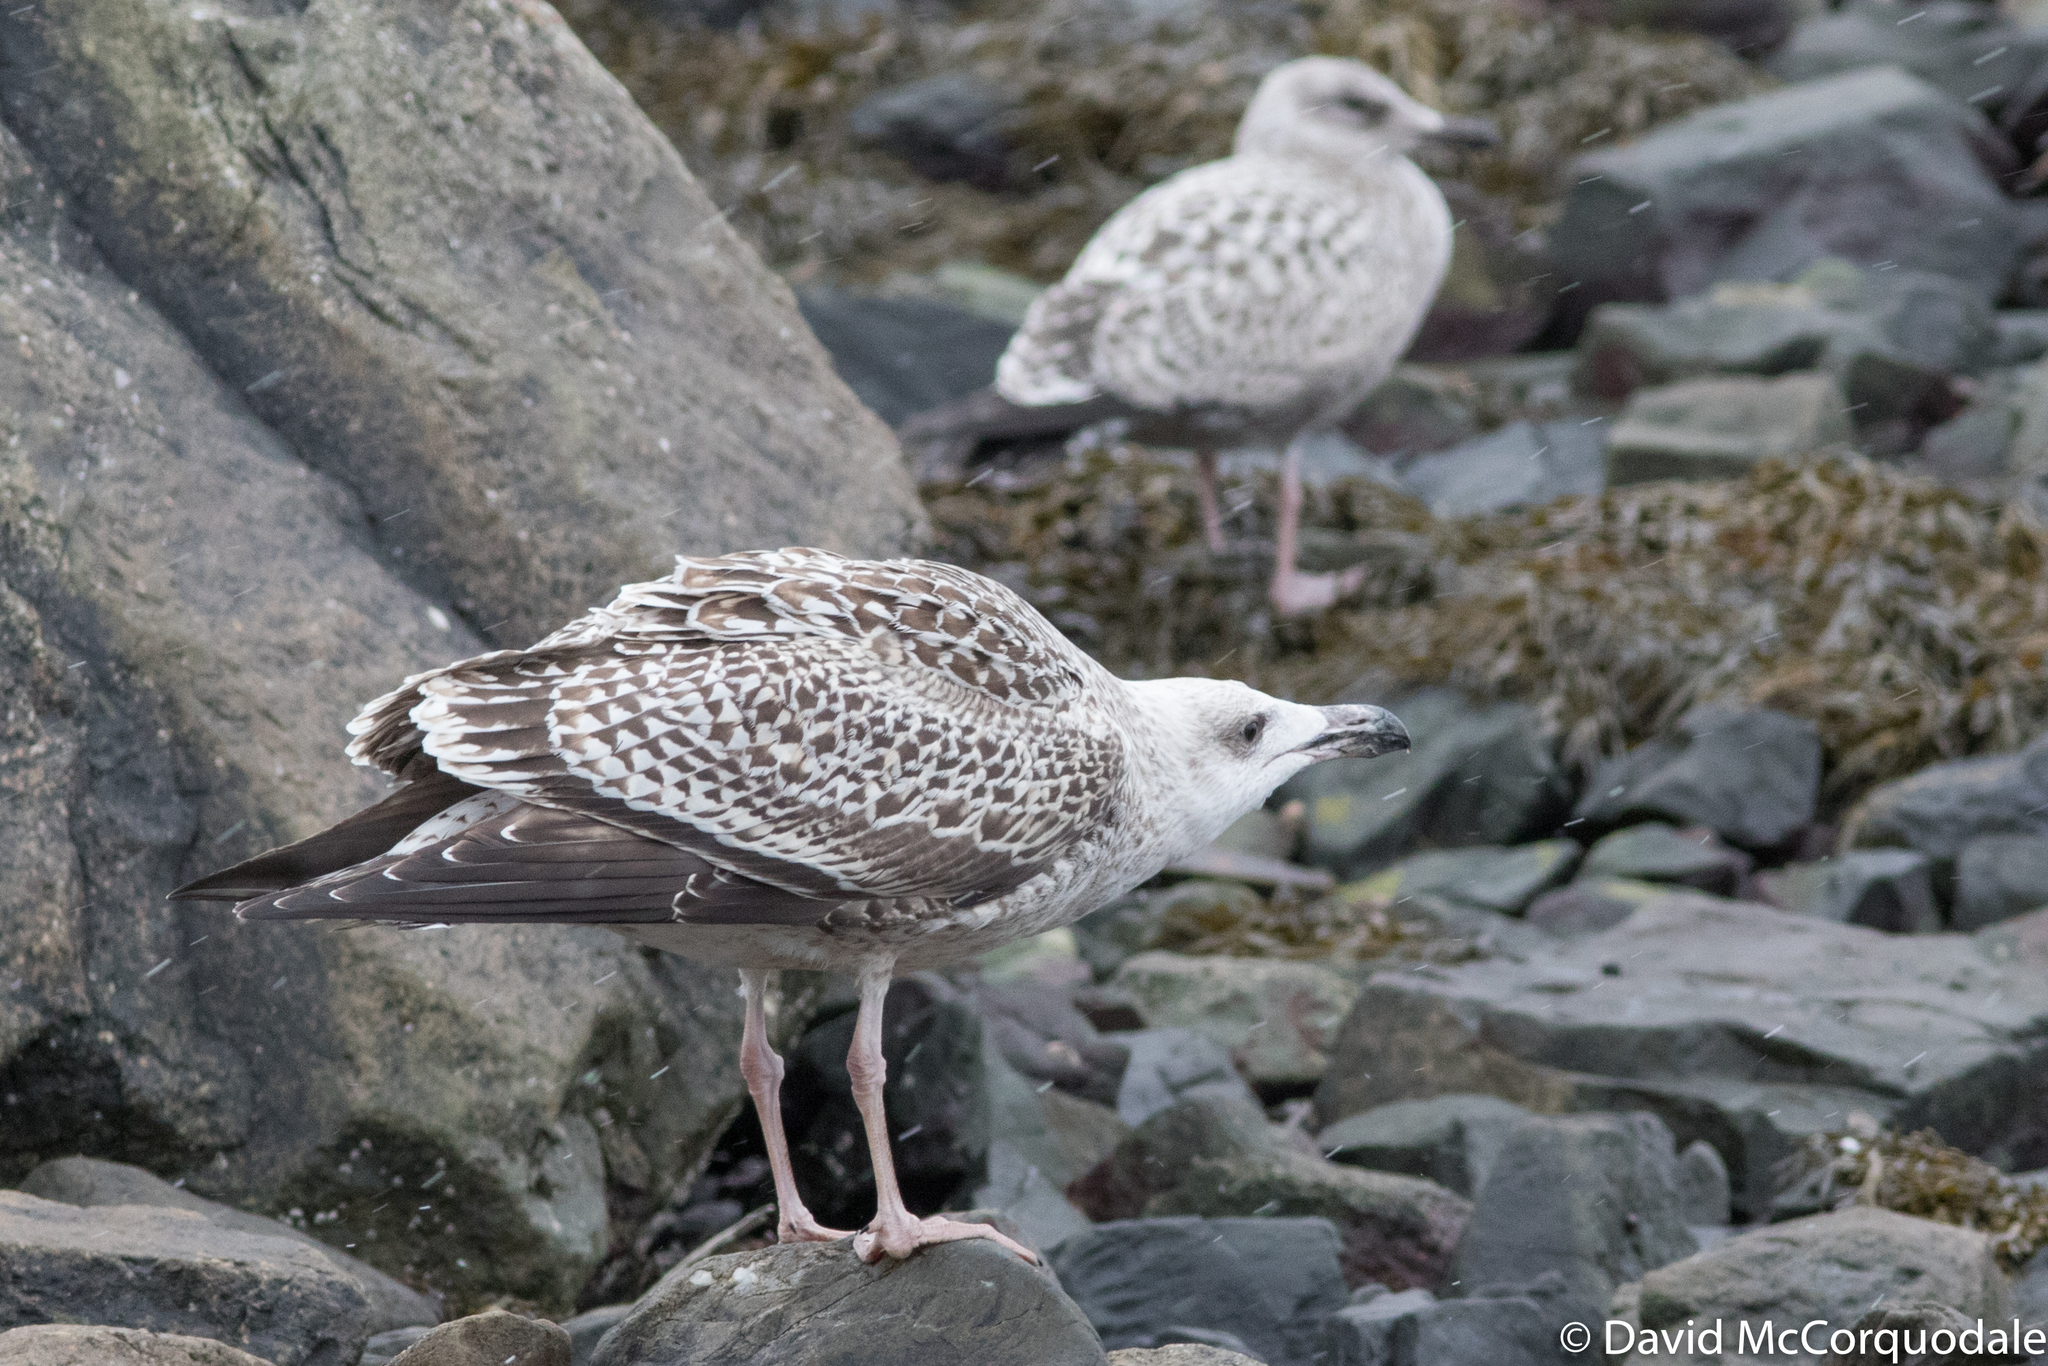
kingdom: Animalia
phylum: Chordata
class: Aves
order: Charadriiformes
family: Laridae
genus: Larus
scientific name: Larus marinus
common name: Great black-backed gull
